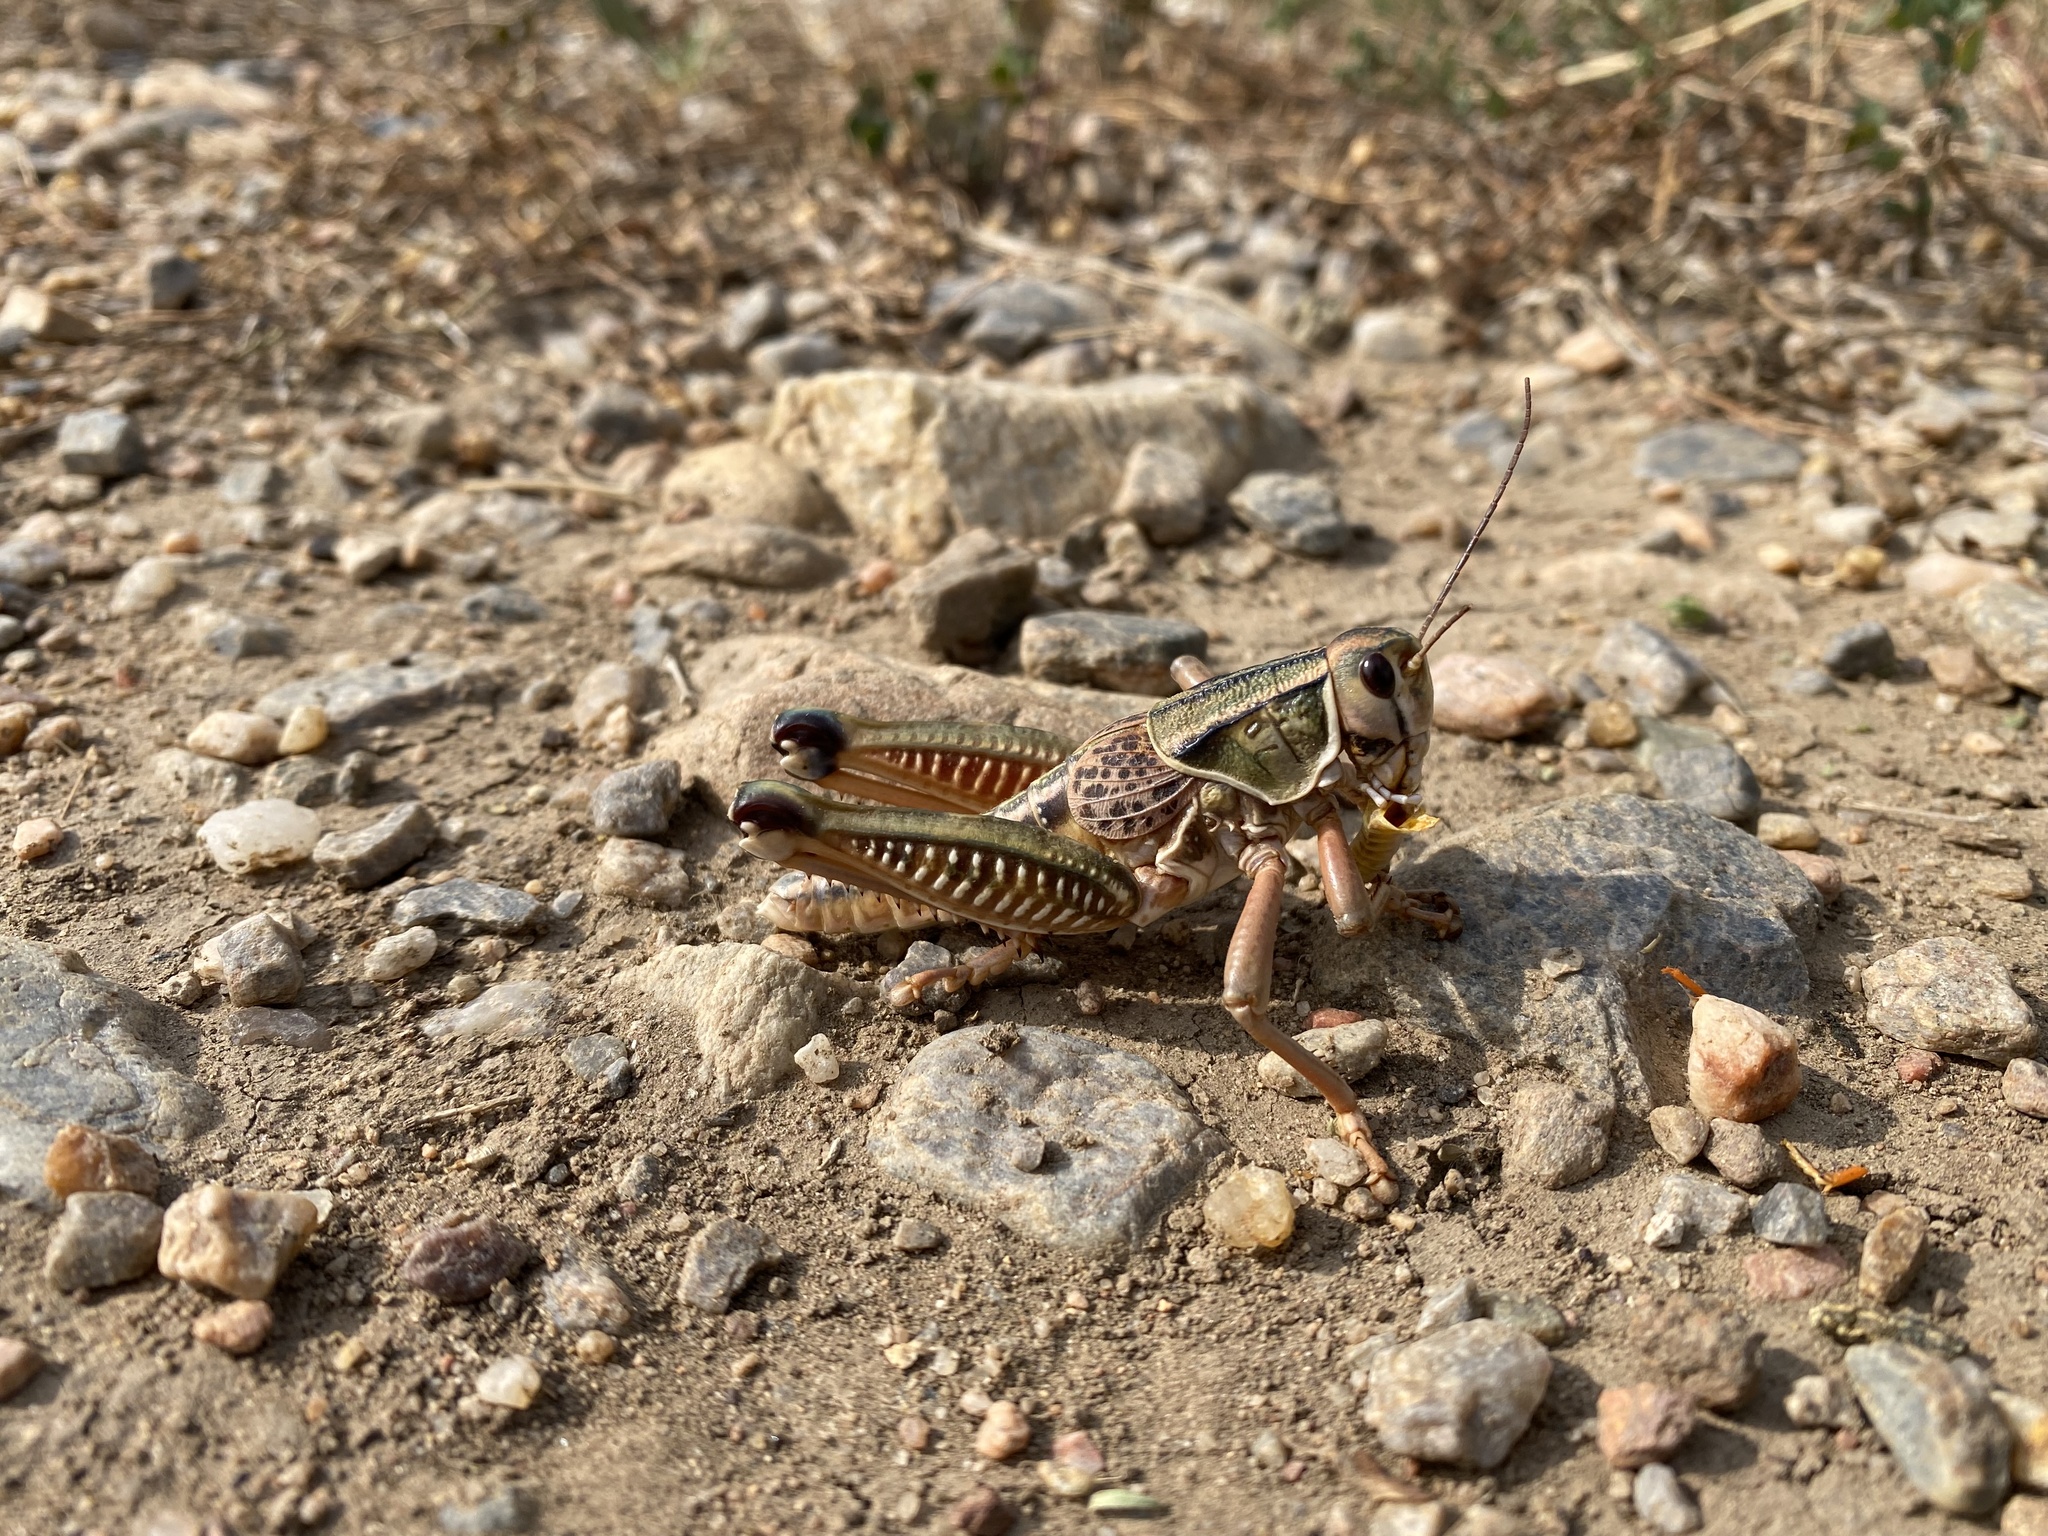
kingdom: Animalia
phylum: Arthropoda
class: Insecta
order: Orthoptera
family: Romaleidae
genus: Brachystola
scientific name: Brachystola magna
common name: Plains lubber grasshopper
